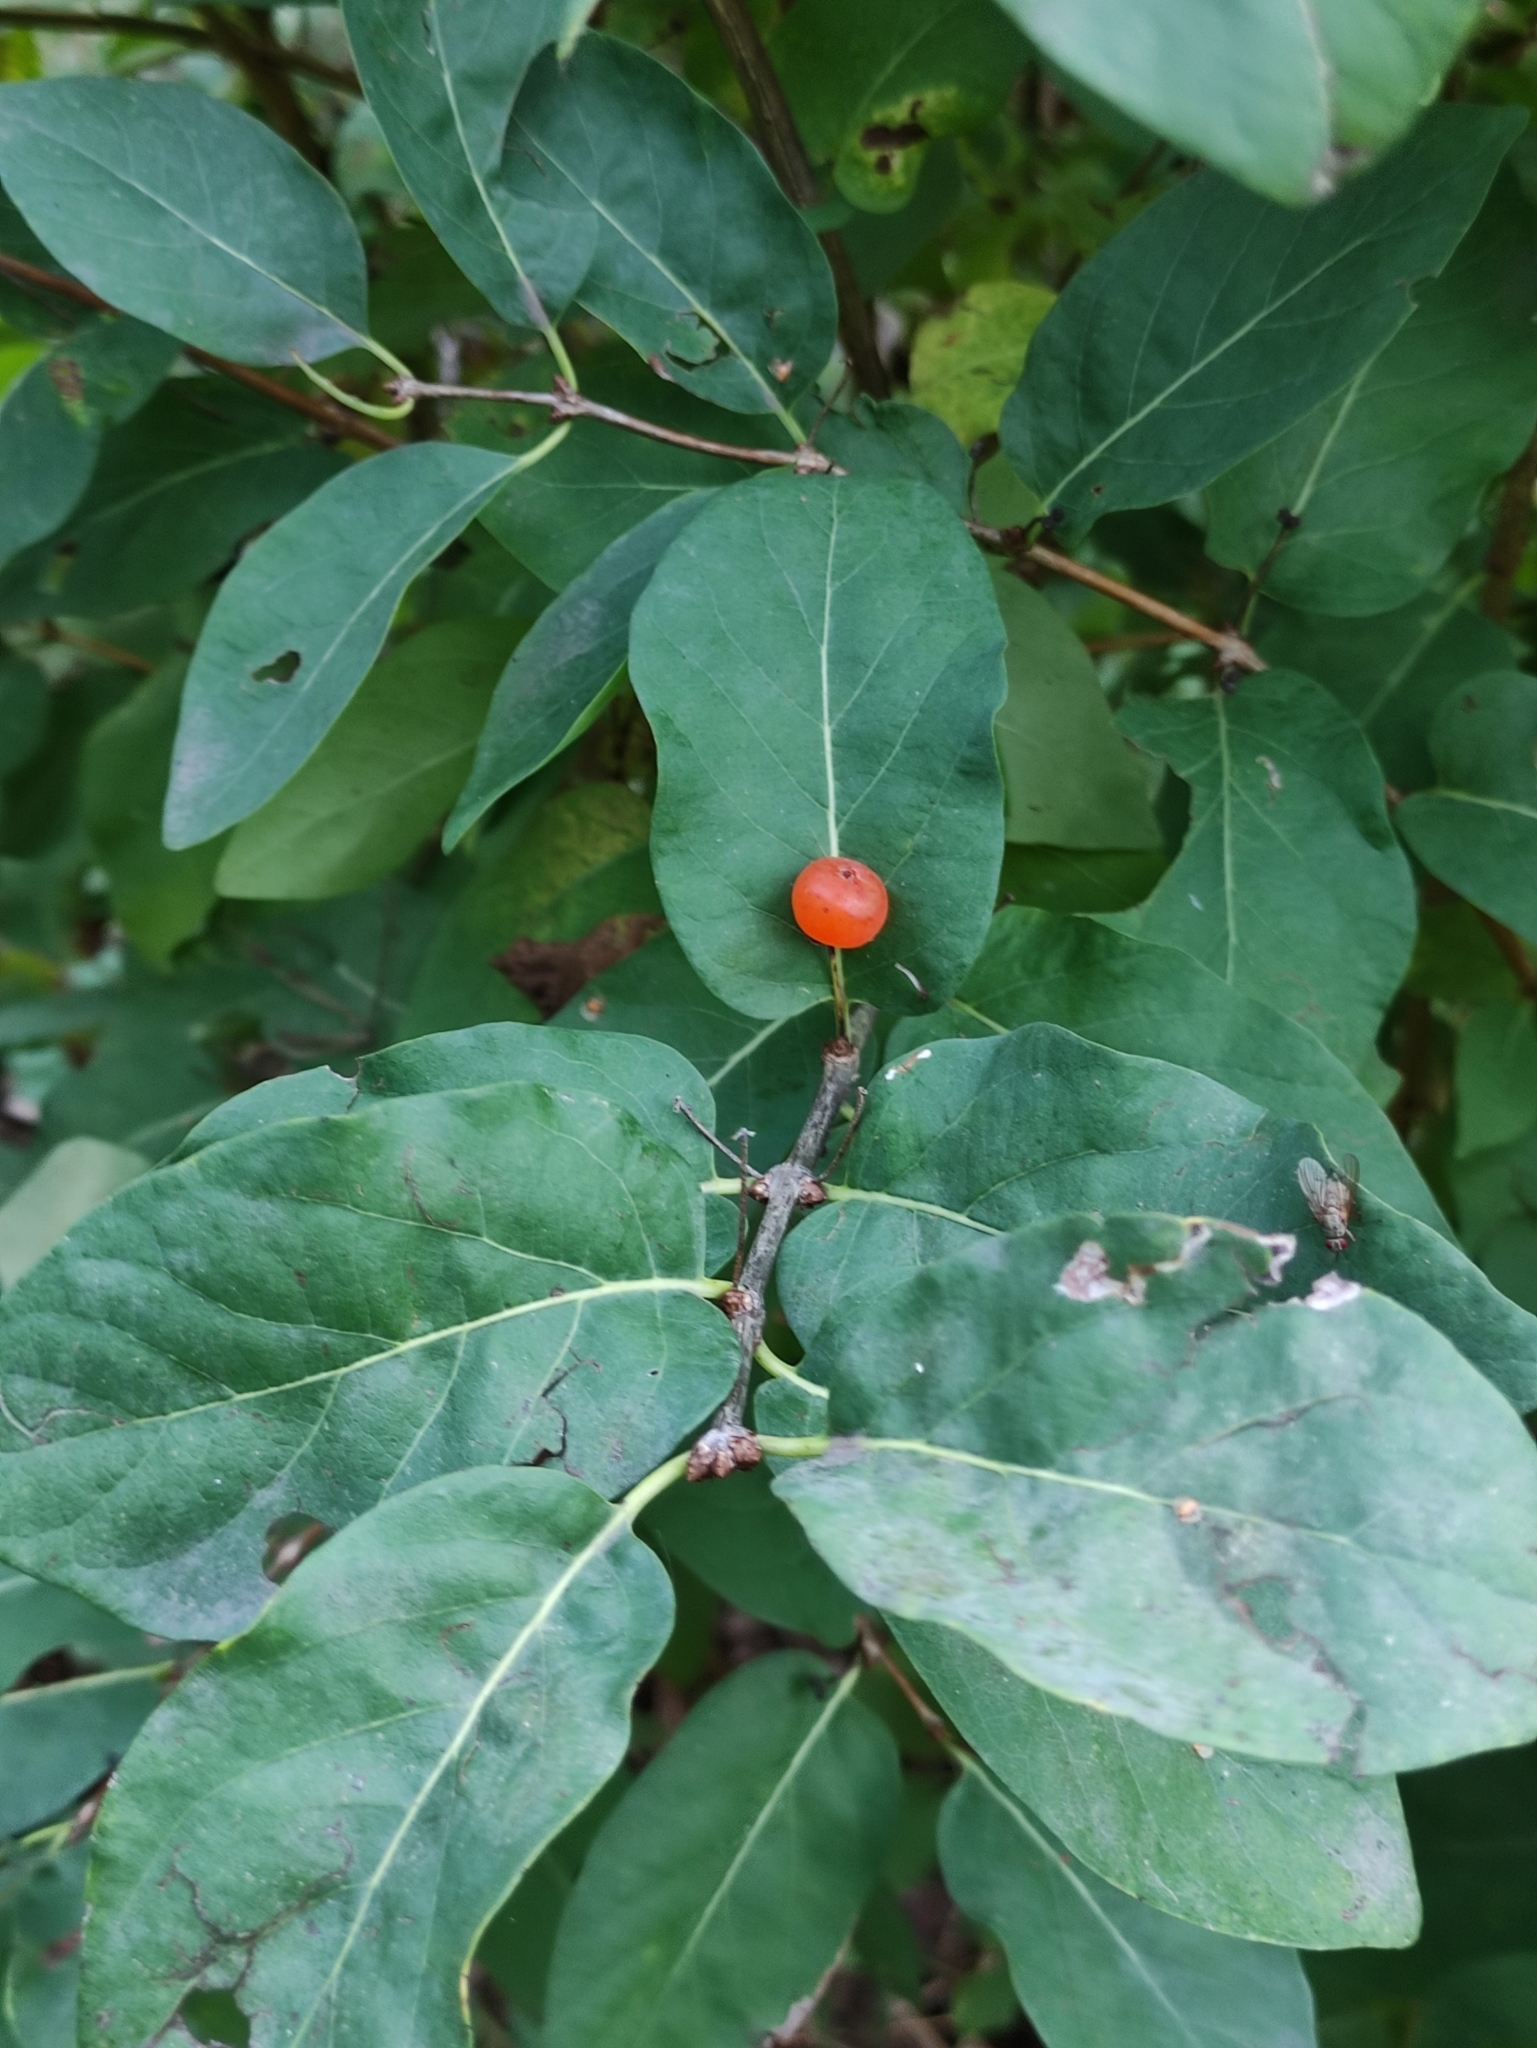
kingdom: Plantae
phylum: Tracheophyta
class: Magnoliopsida
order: Dipsacales
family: Caprifoliaceae
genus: Lonicera
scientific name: Lonicera tatarica
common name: Tatarian honeysuckle
